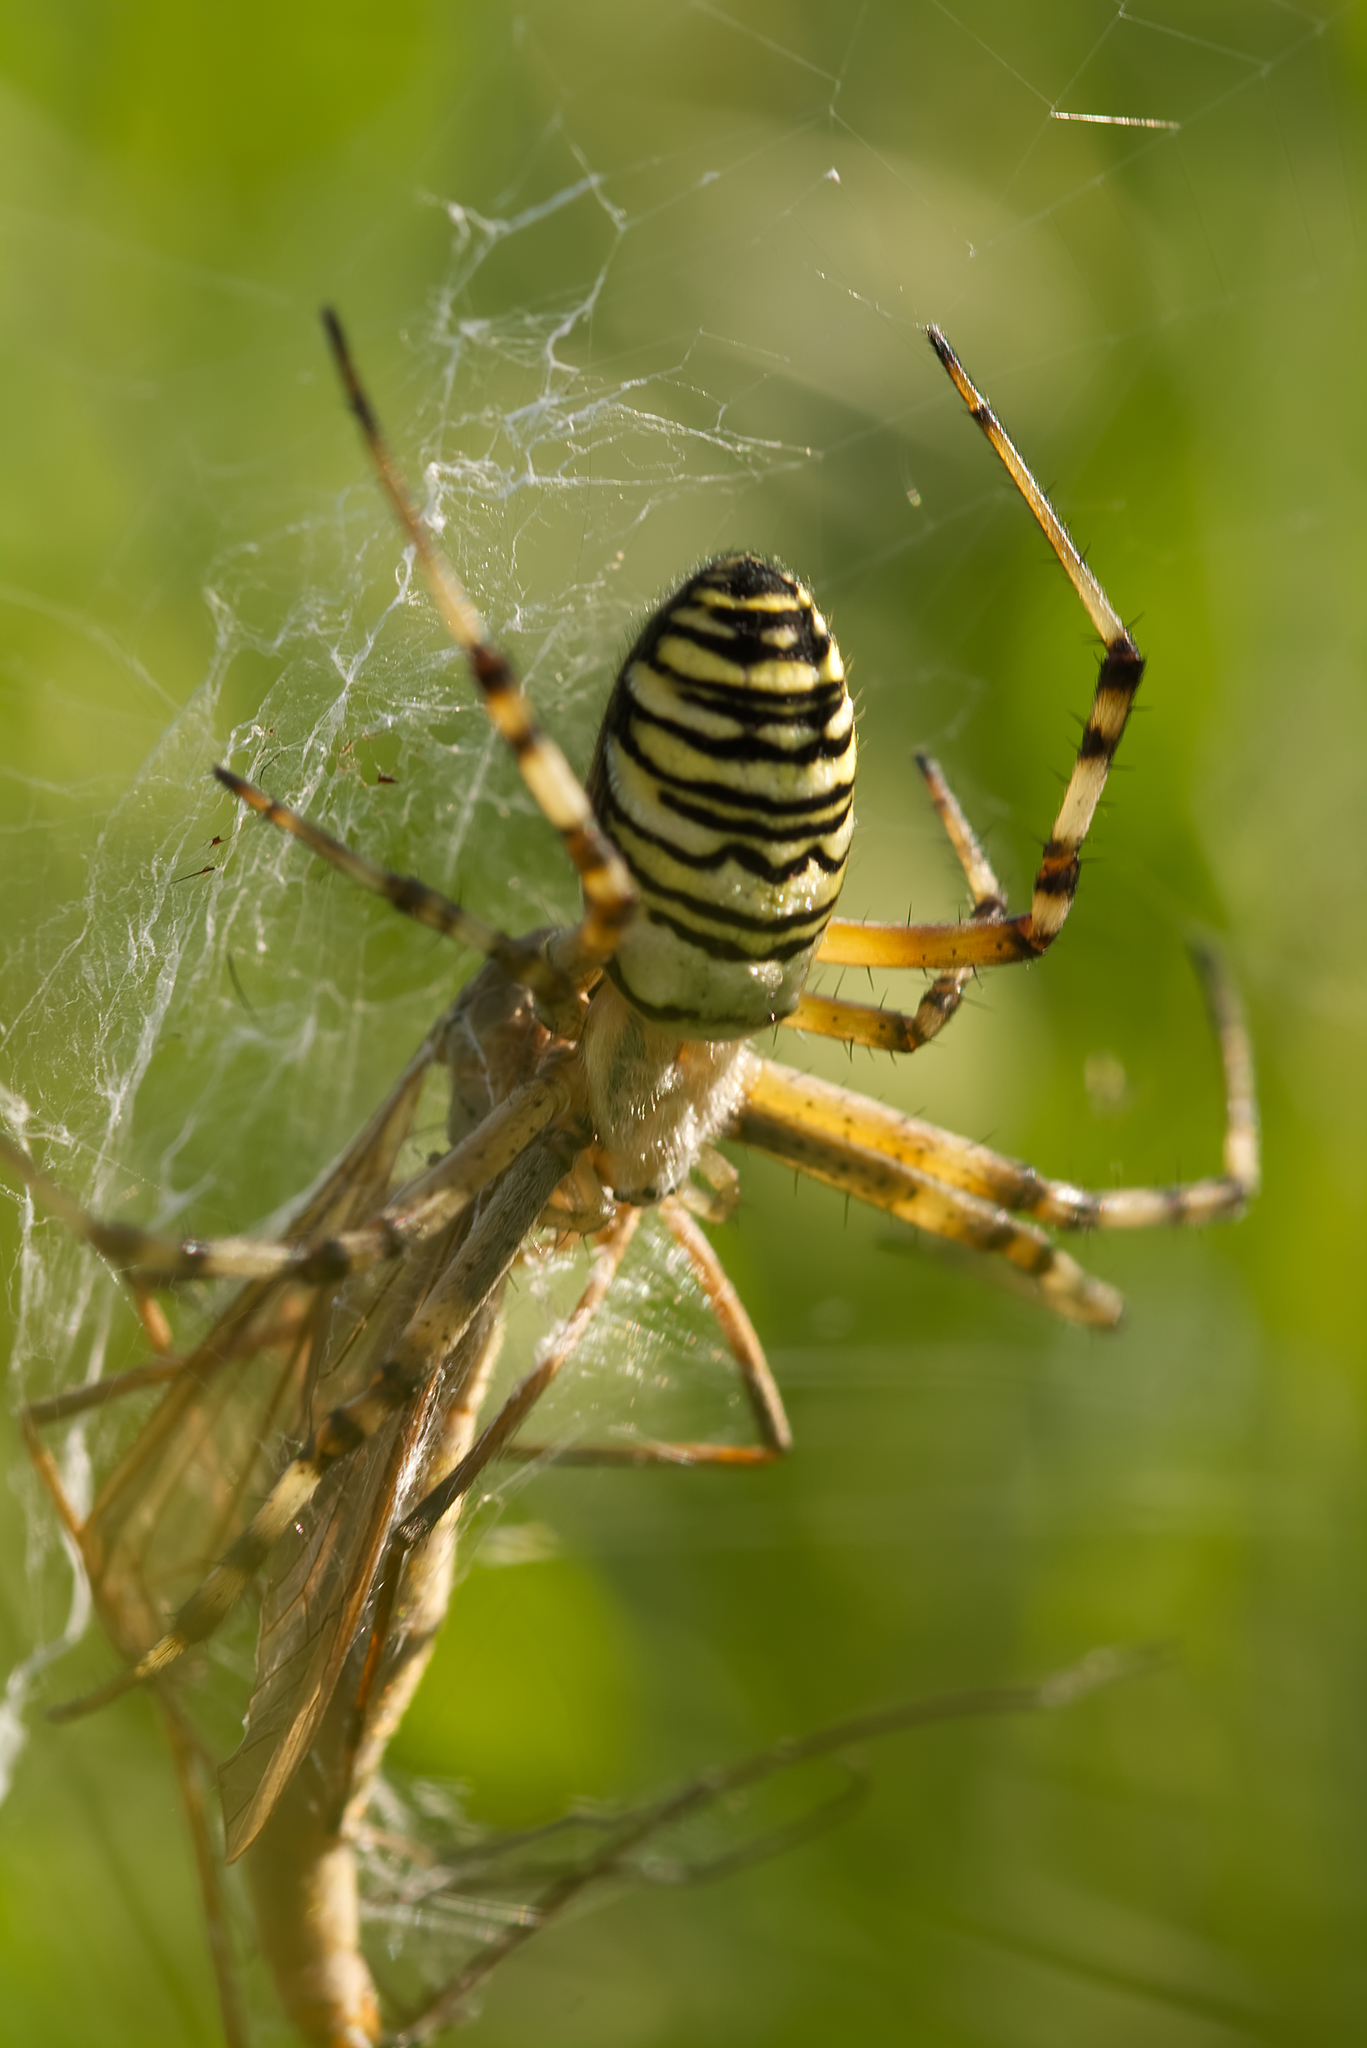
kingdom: Animalia
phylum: Arthropoda
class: Arachnida
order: Araneae
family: Araneidae
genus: Argiope
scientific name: Argiope bruennichi
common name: Wasp spider
